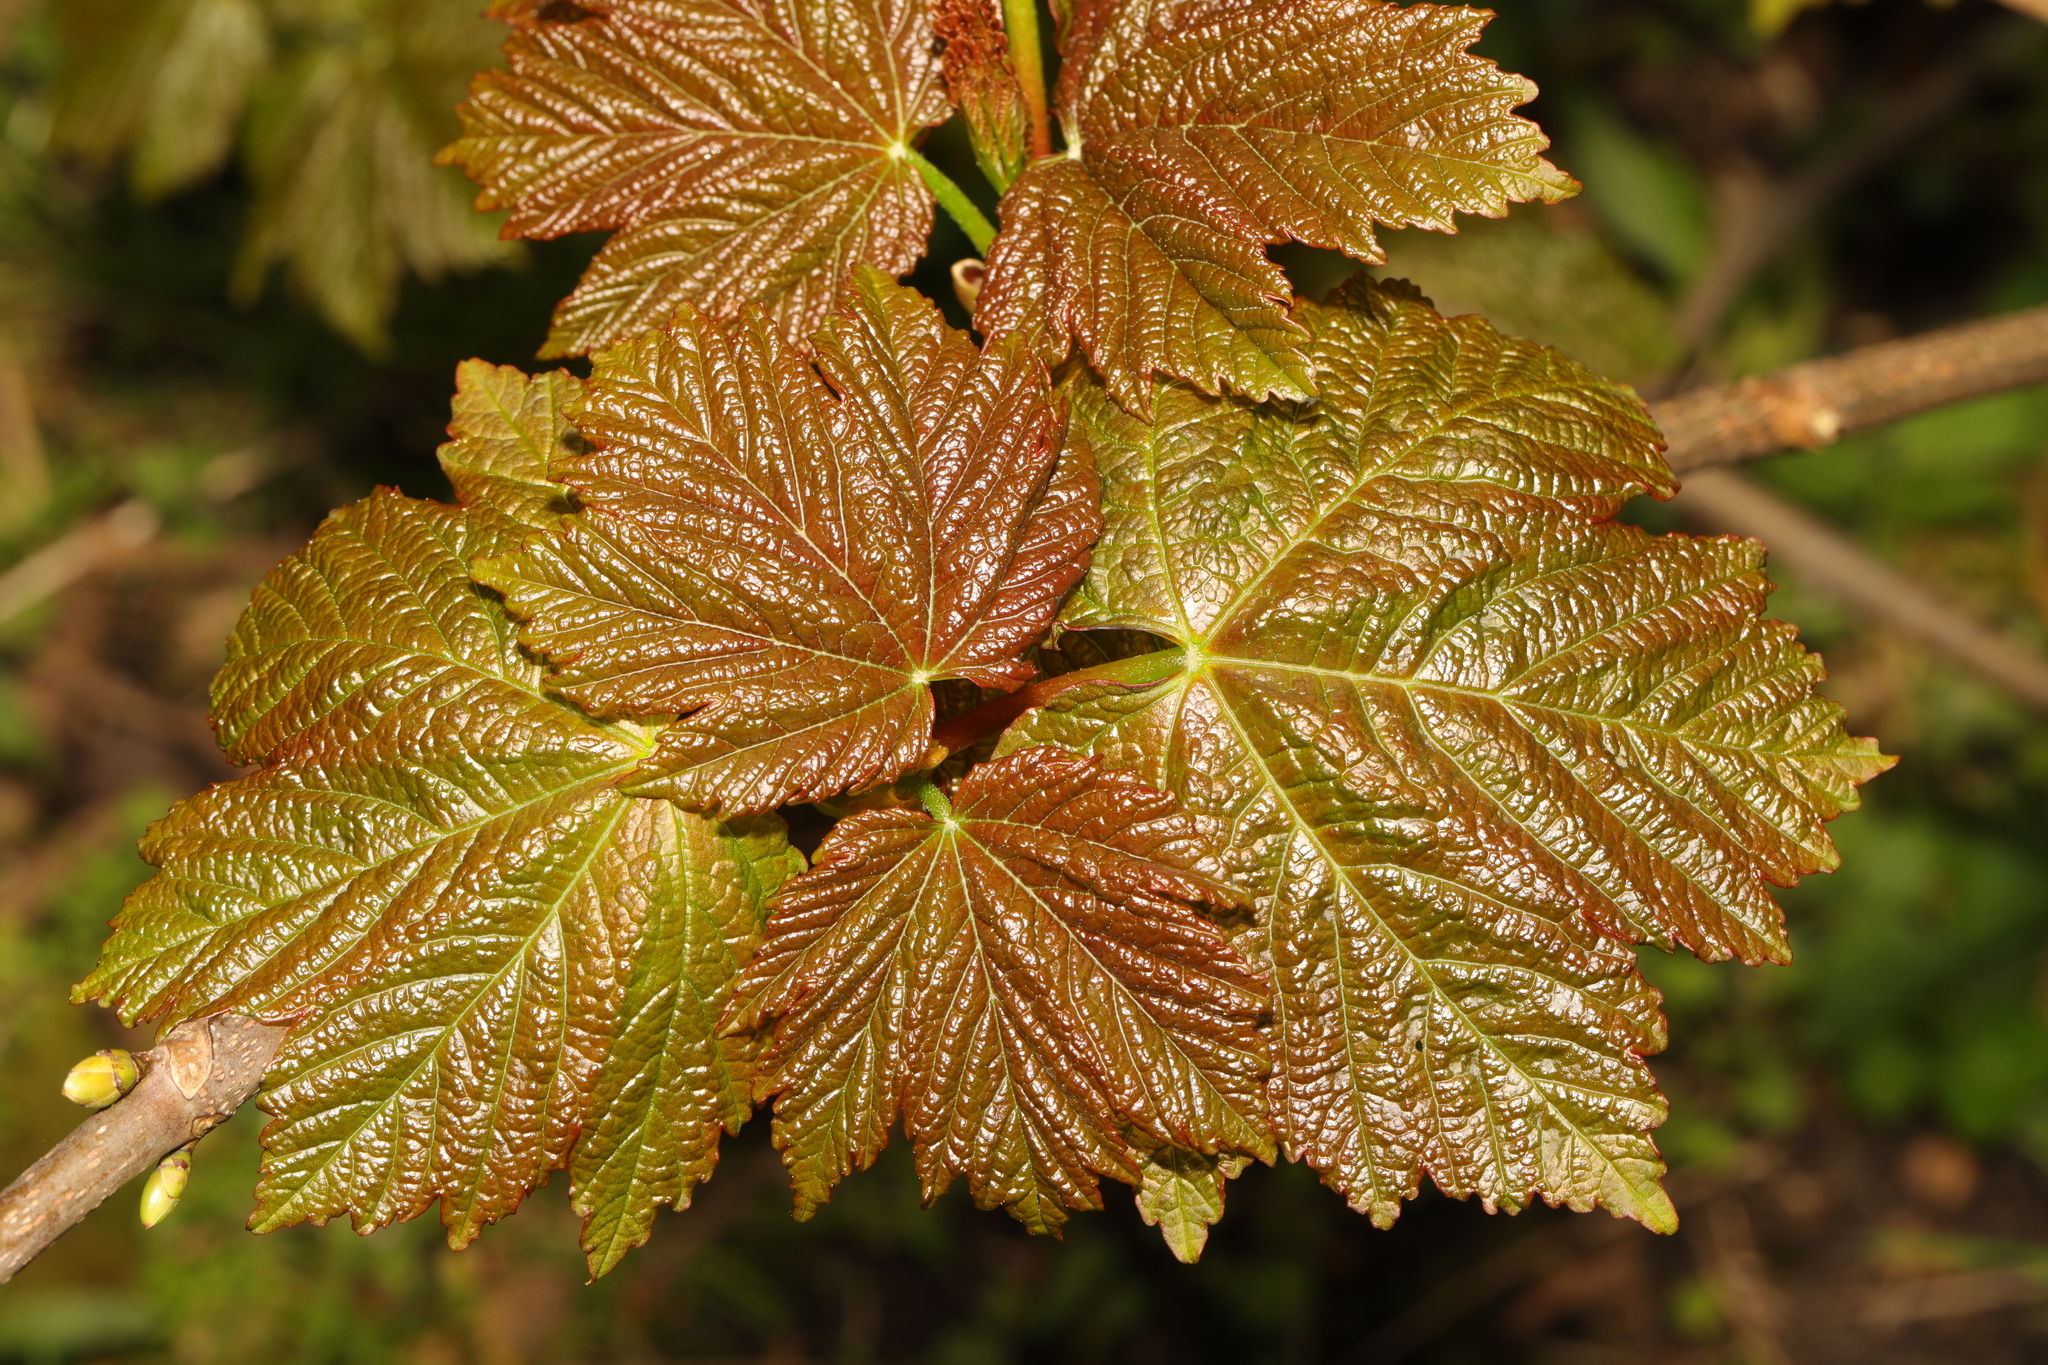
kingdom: Plantae
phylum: Tracheophyta
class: Magnoliopsida
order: Sapindales
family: Sapindaceae
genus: Acer
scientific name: Acer pseudoplatanus
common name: Sycamore
